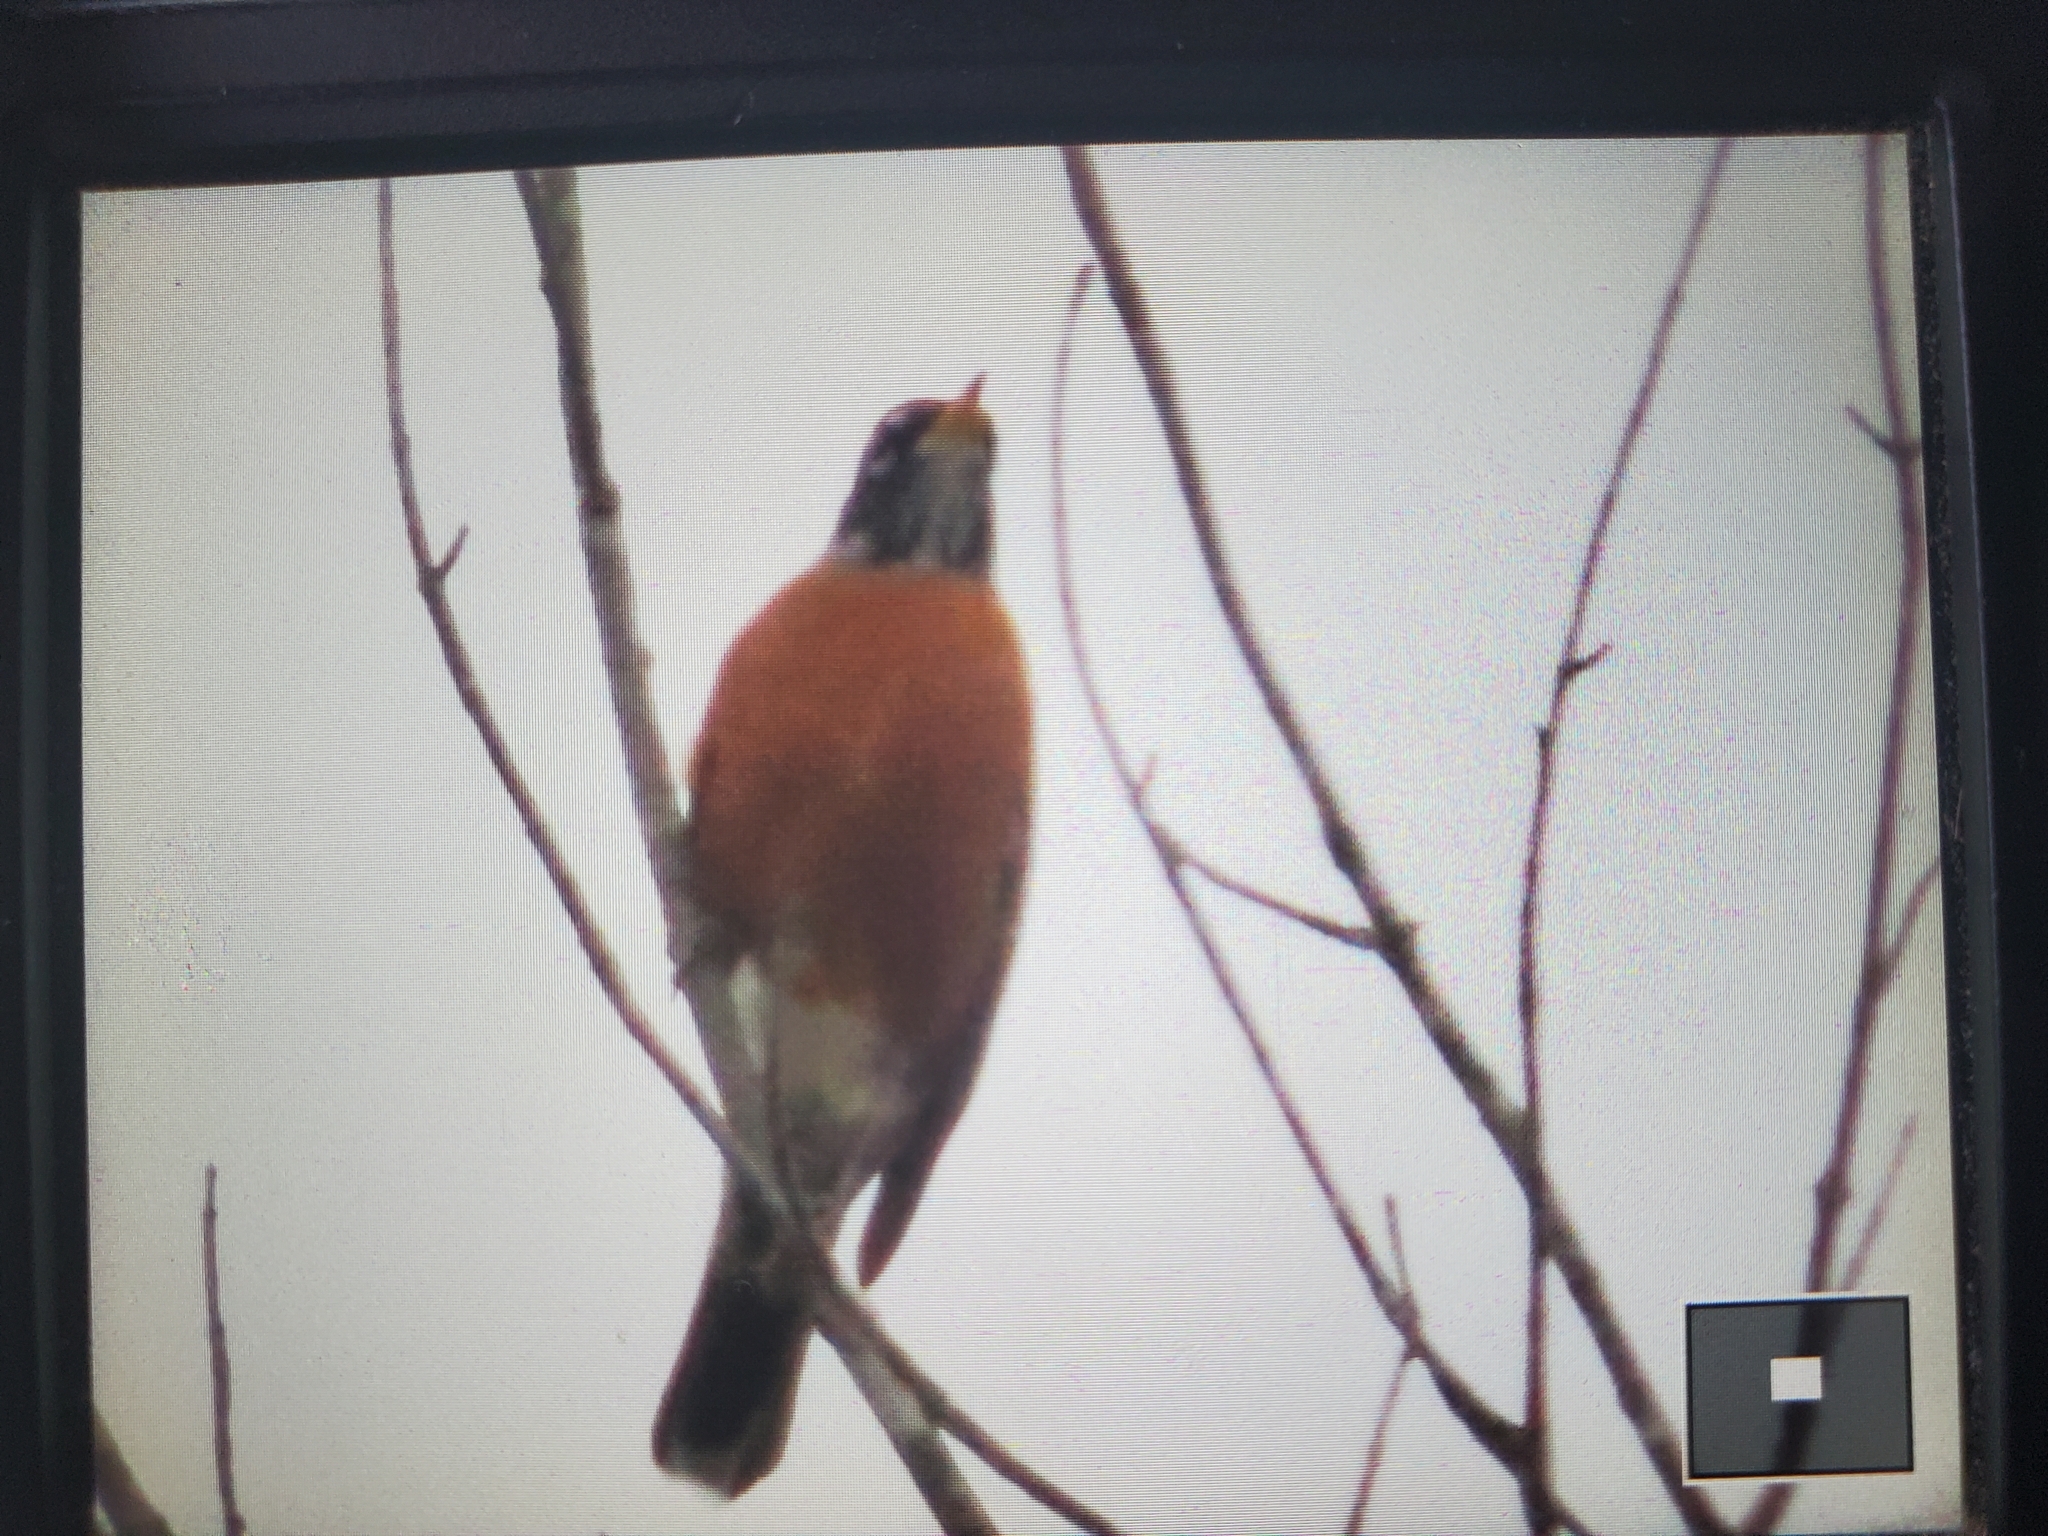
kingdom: Animalia
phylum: Chordata
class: Aves
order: Passeriformes
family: Turdidae
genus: Turdus
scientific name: Turdus migratorius
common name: American robin
